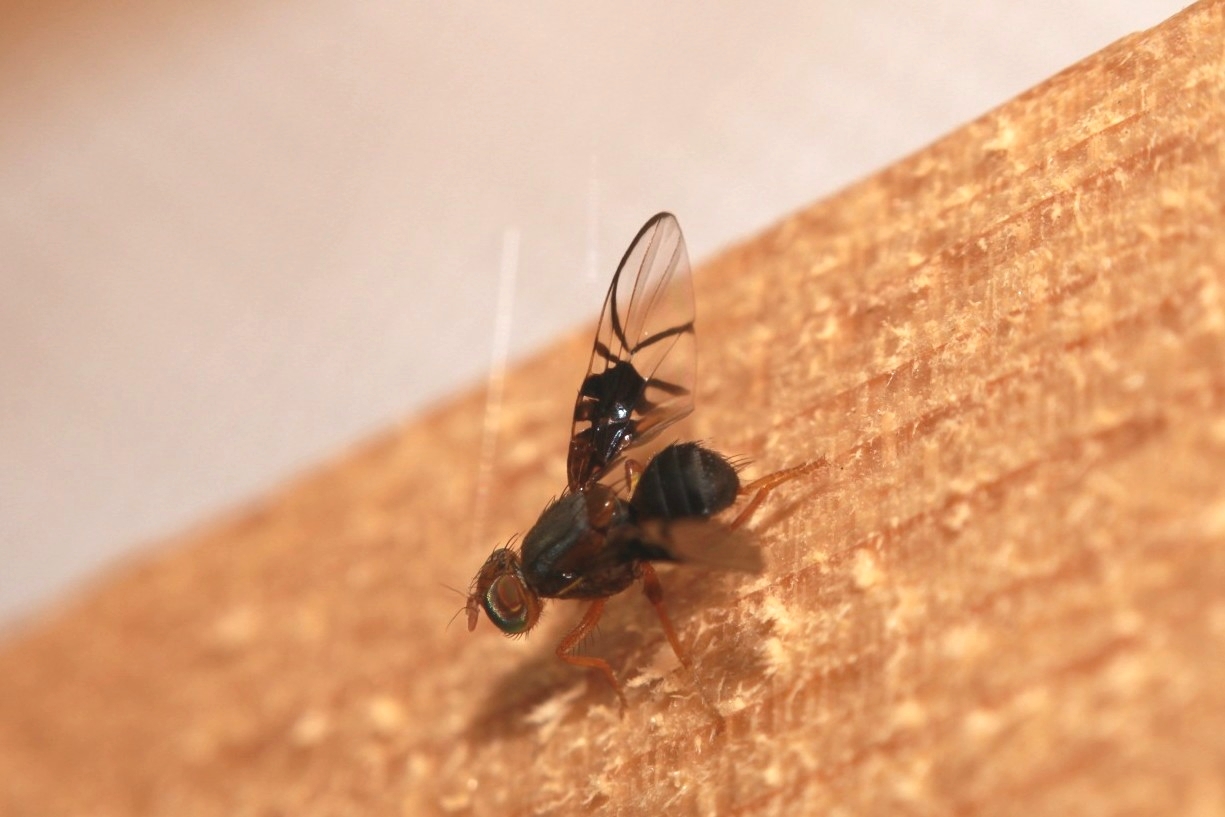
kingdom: Animalia
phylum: Arthropoda
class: Insecta
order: Diptera
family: Tephritidae
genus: Anomoia
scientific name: Anomoia purmunda
